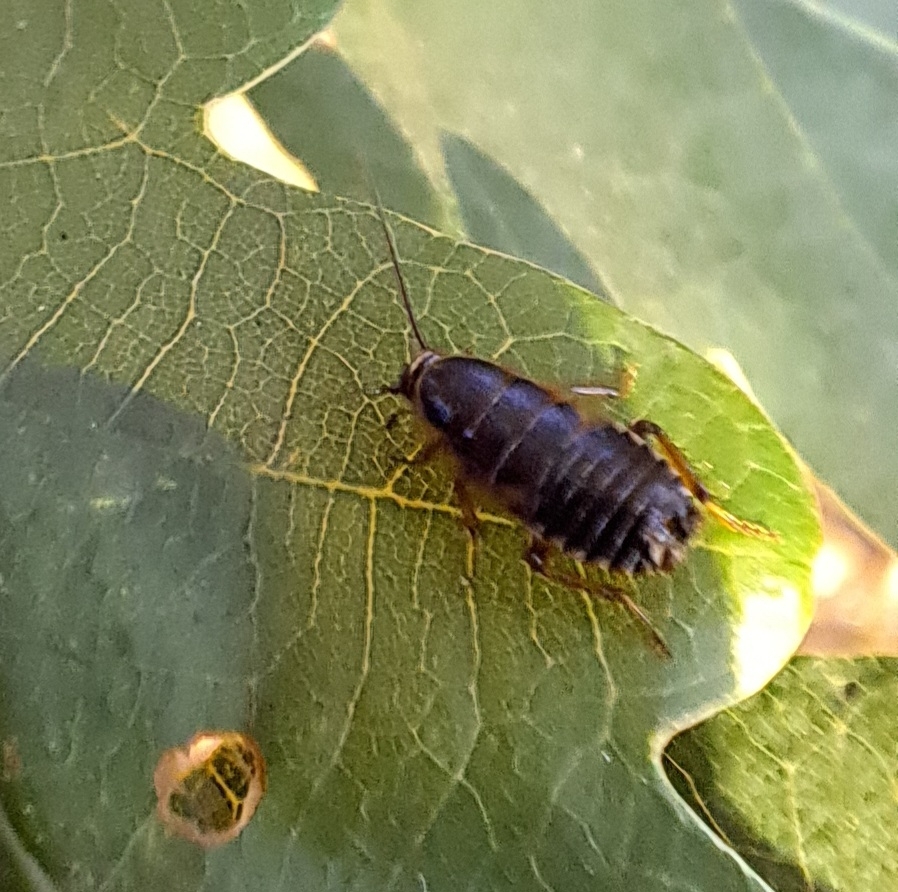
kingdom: Animalia
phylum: Arthropoda
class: Insecta
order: Blattodea
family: Ectobiidae
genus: Ectobius
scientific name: Ectobius sylvestris
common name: Forest cockroach
